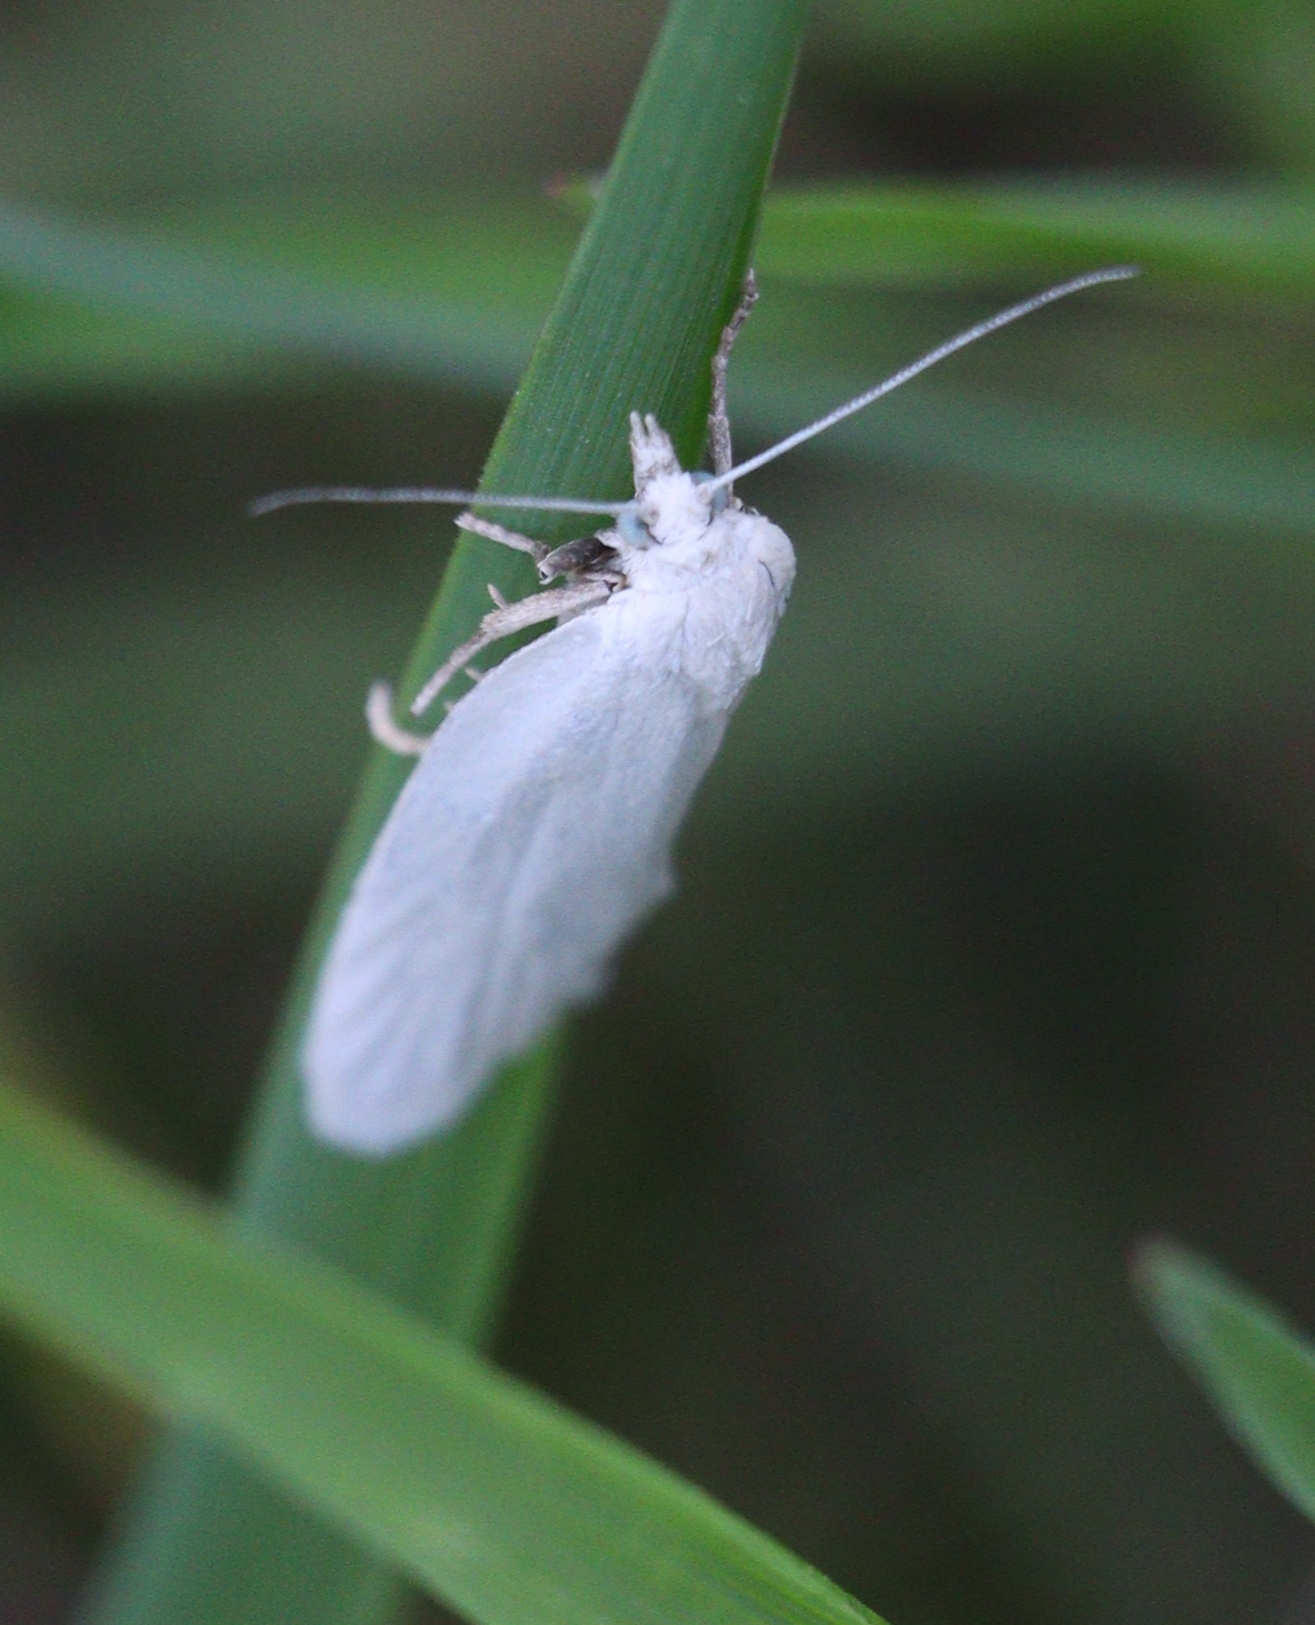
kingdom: Animalia
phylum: Arthropoda
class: Insecta
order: Lepidoptera
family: Tortricidae
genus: Eana
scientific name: Eana argentana
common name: Silver shade
